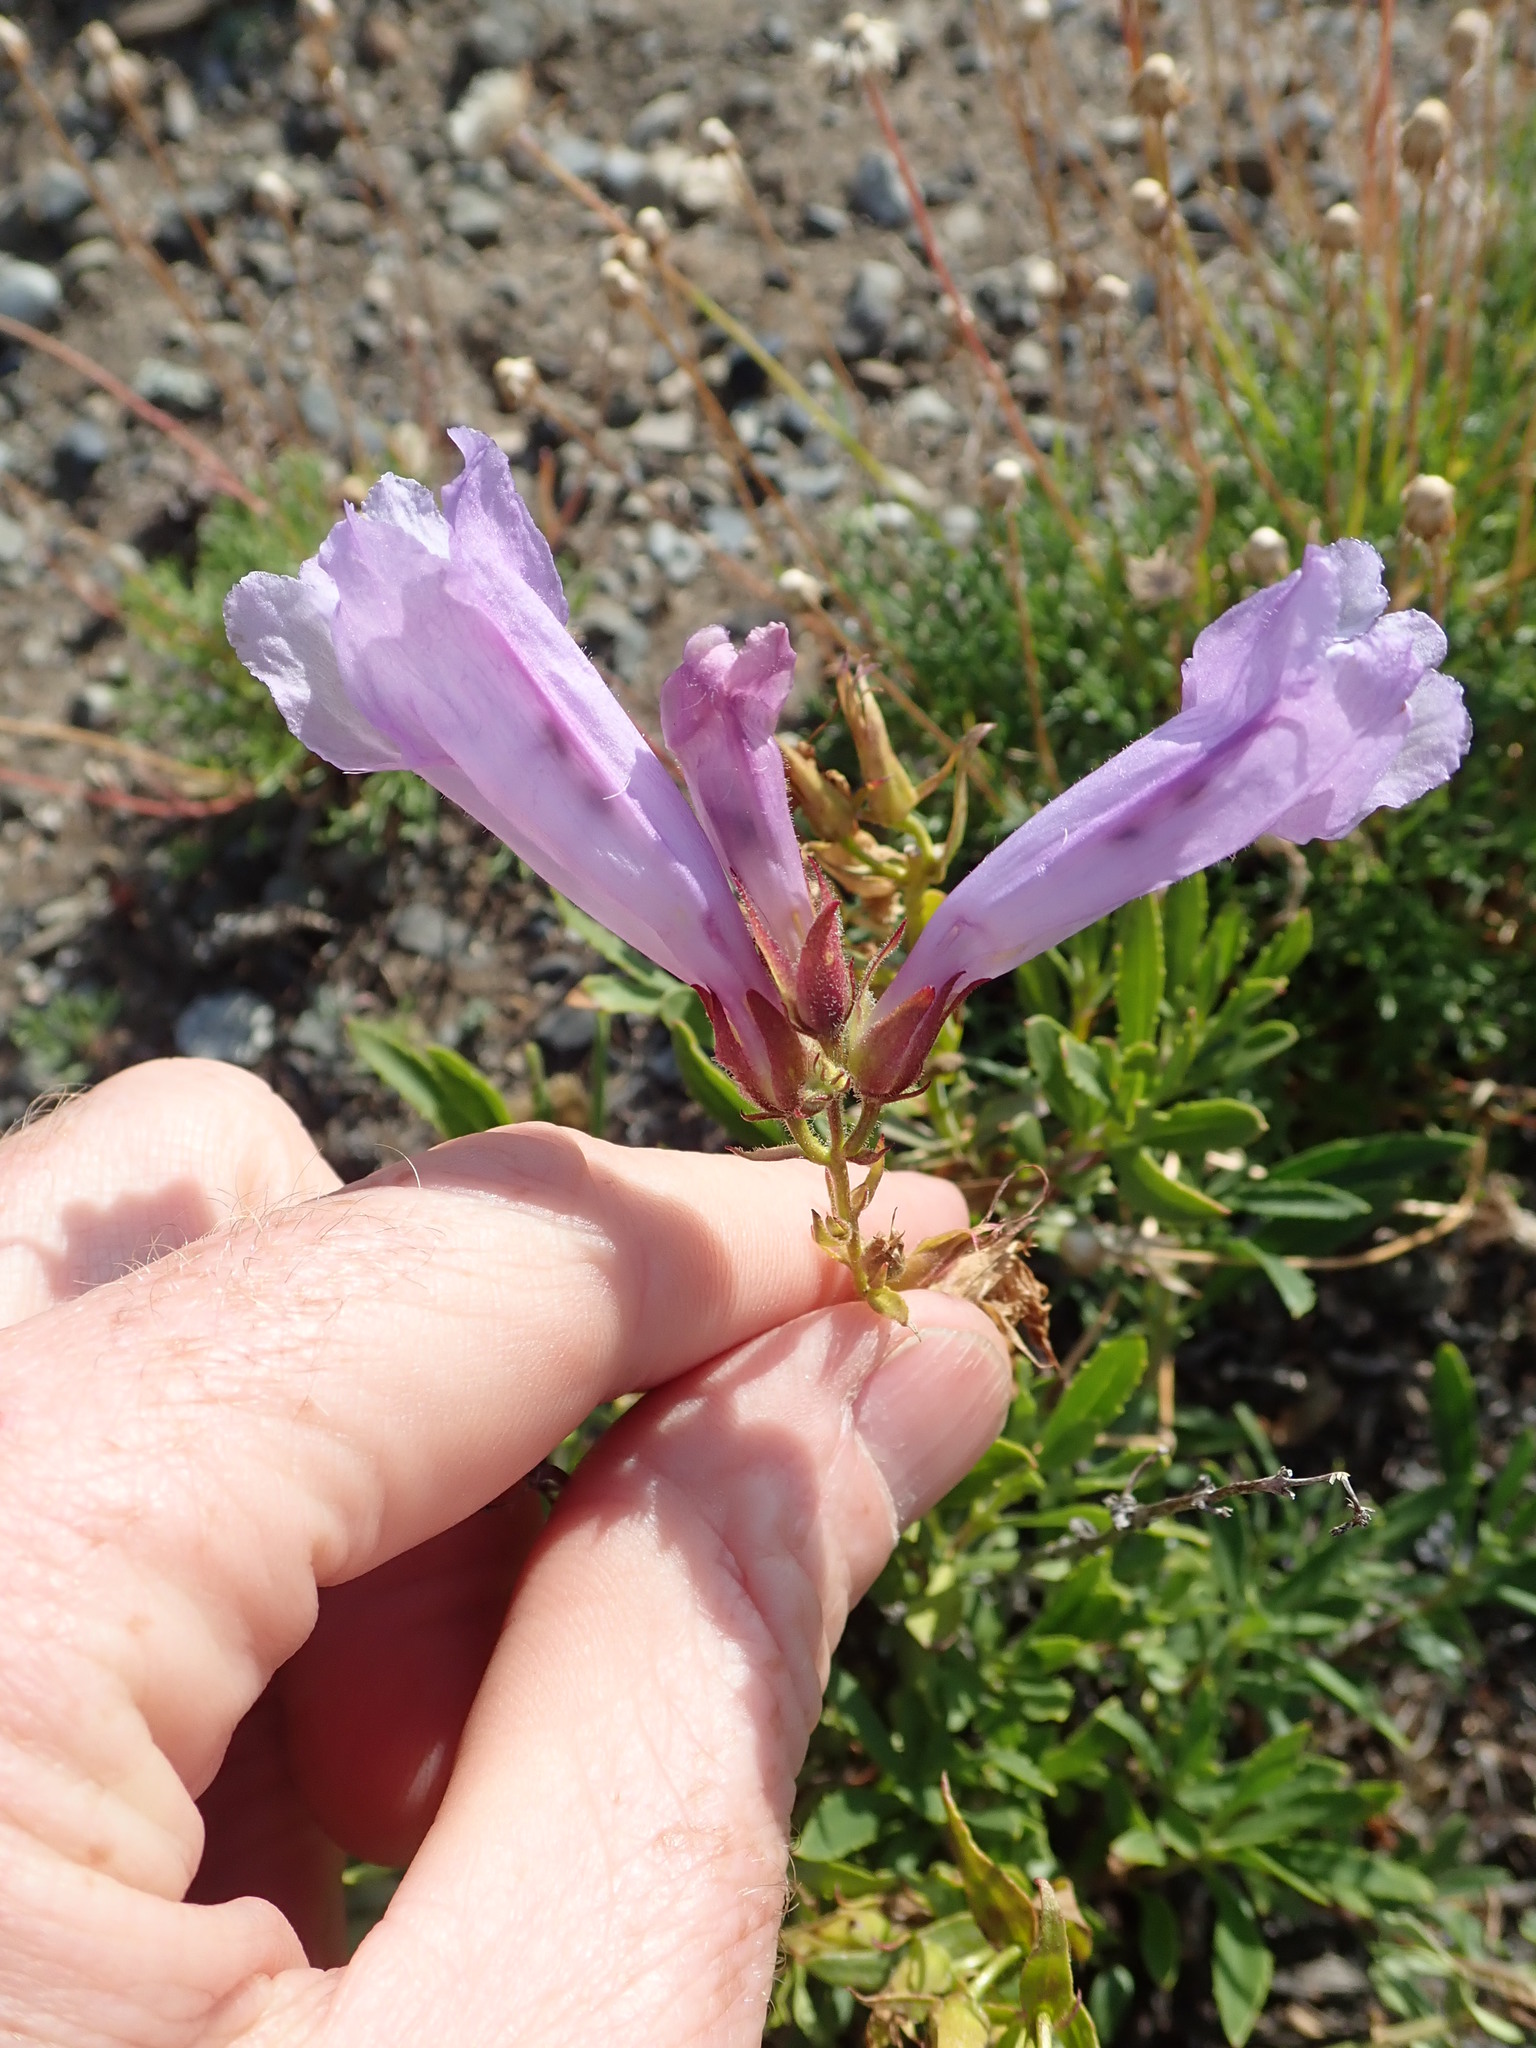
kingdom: Plantae
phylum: Tracheophyta
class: Magnoliopsida
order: Lamiales
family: Plantaginaceae
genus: Penstemon
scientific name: Penstemon fruticosus
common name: Bush penstemon
